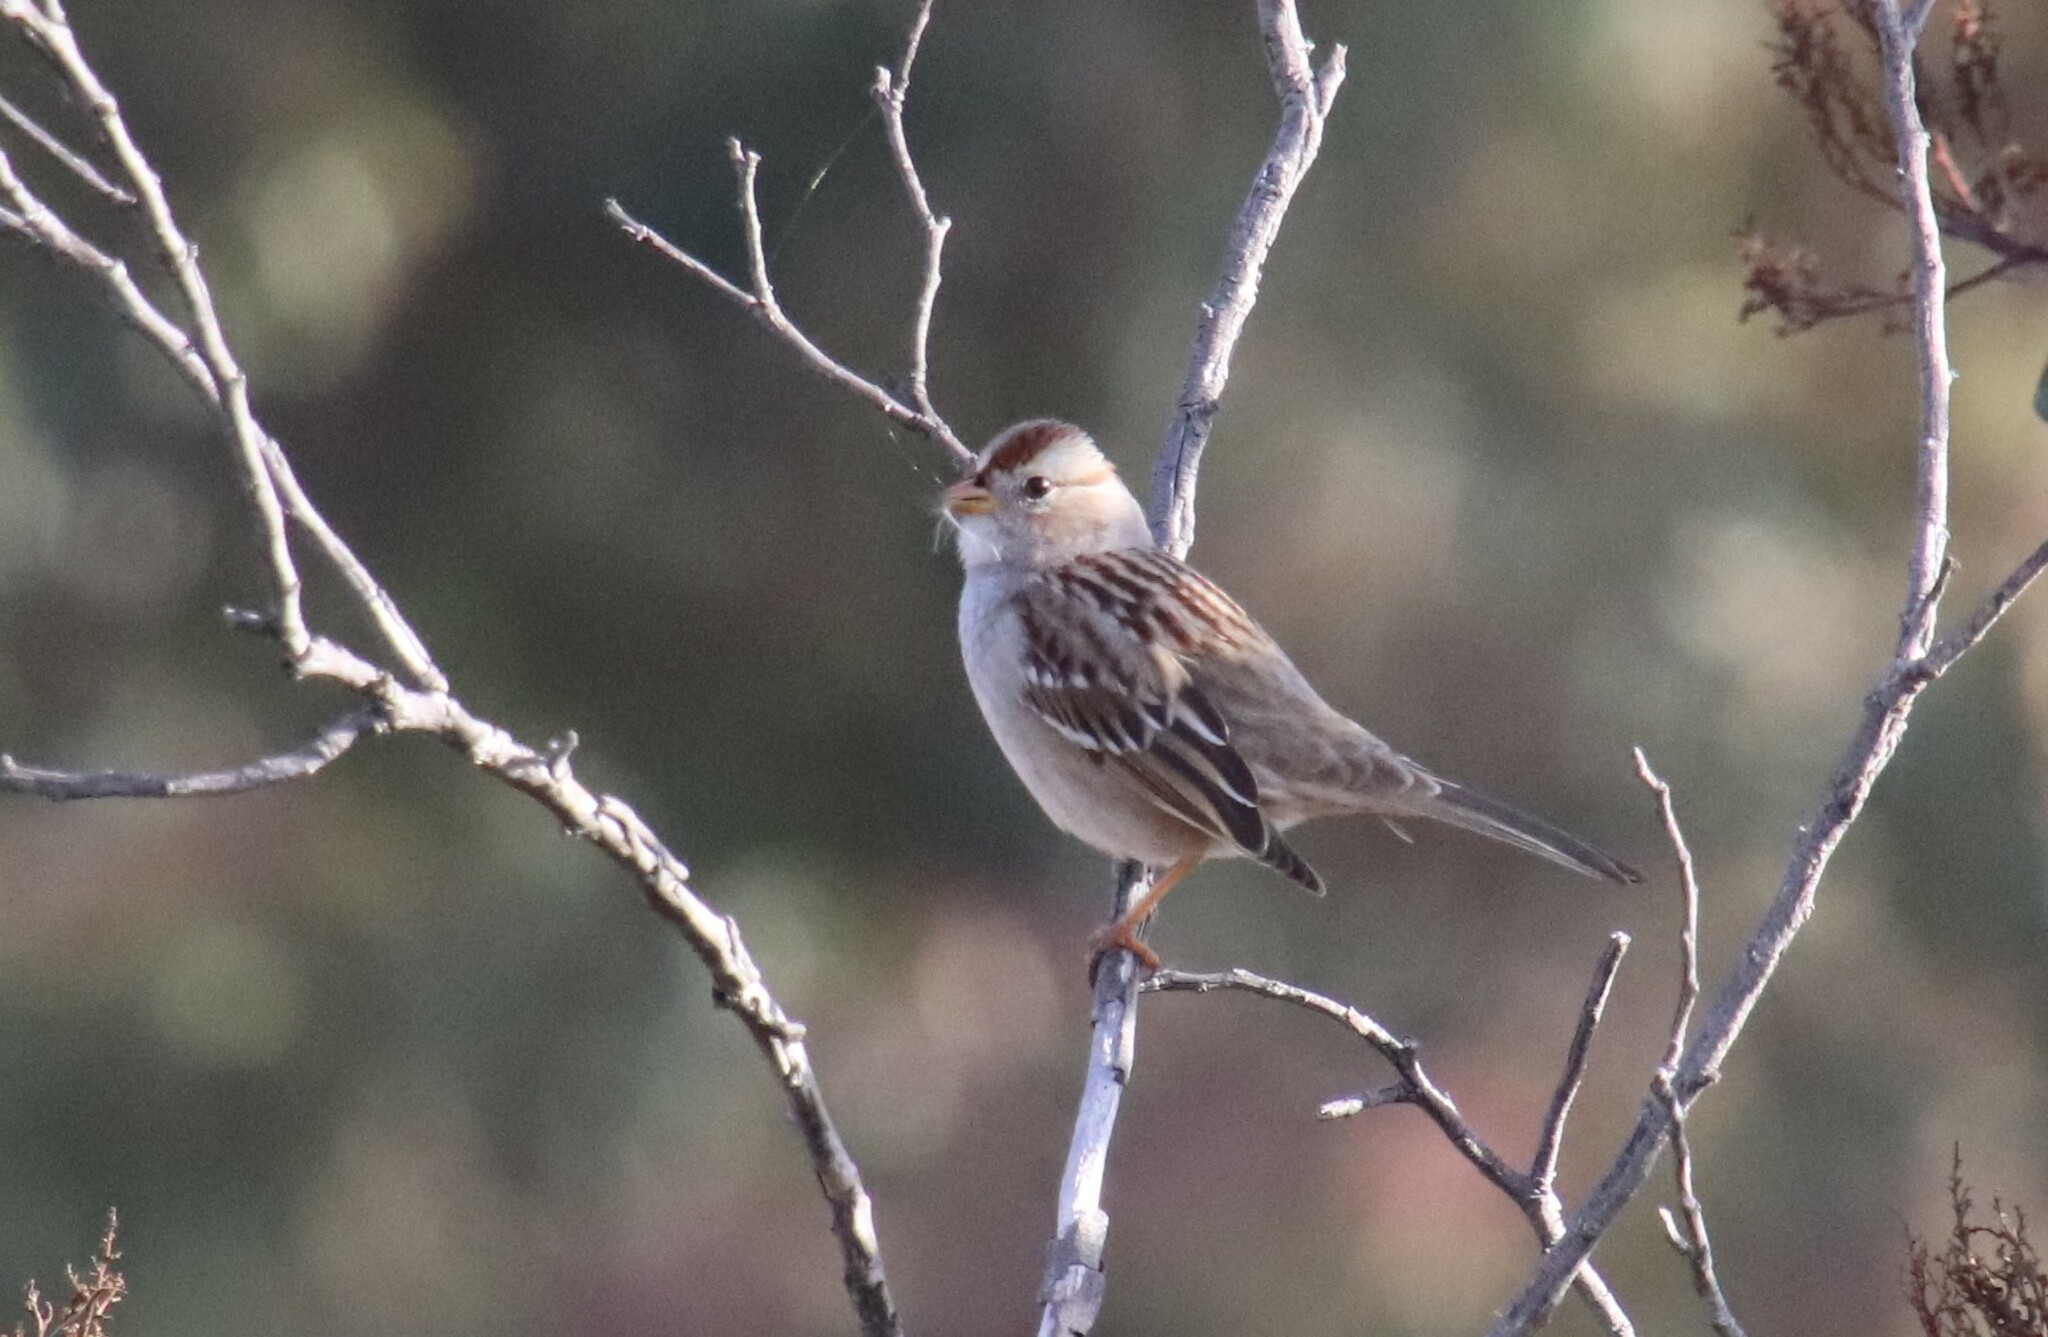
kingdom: Animalia
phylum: Chordata
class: Aves
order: Passeriformes
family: Passerellidae
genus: Zonotrichia
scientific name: Zonotrichia leucophrys
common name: White-crowned sparrow
